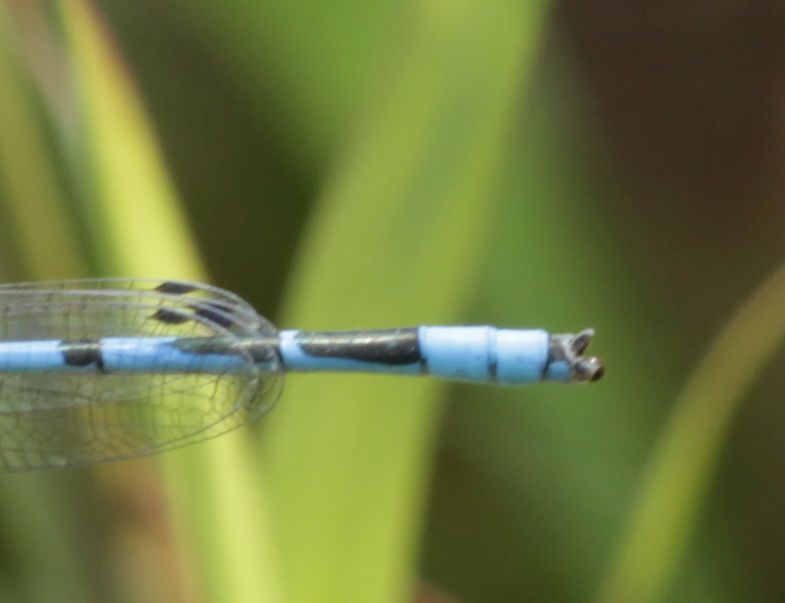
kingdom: Animalia
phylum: Arthropoda
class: Insecta
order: Odonata
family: Coenagrionidae
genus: Enallagma
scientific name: Enallagma civile
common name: Damselfly
